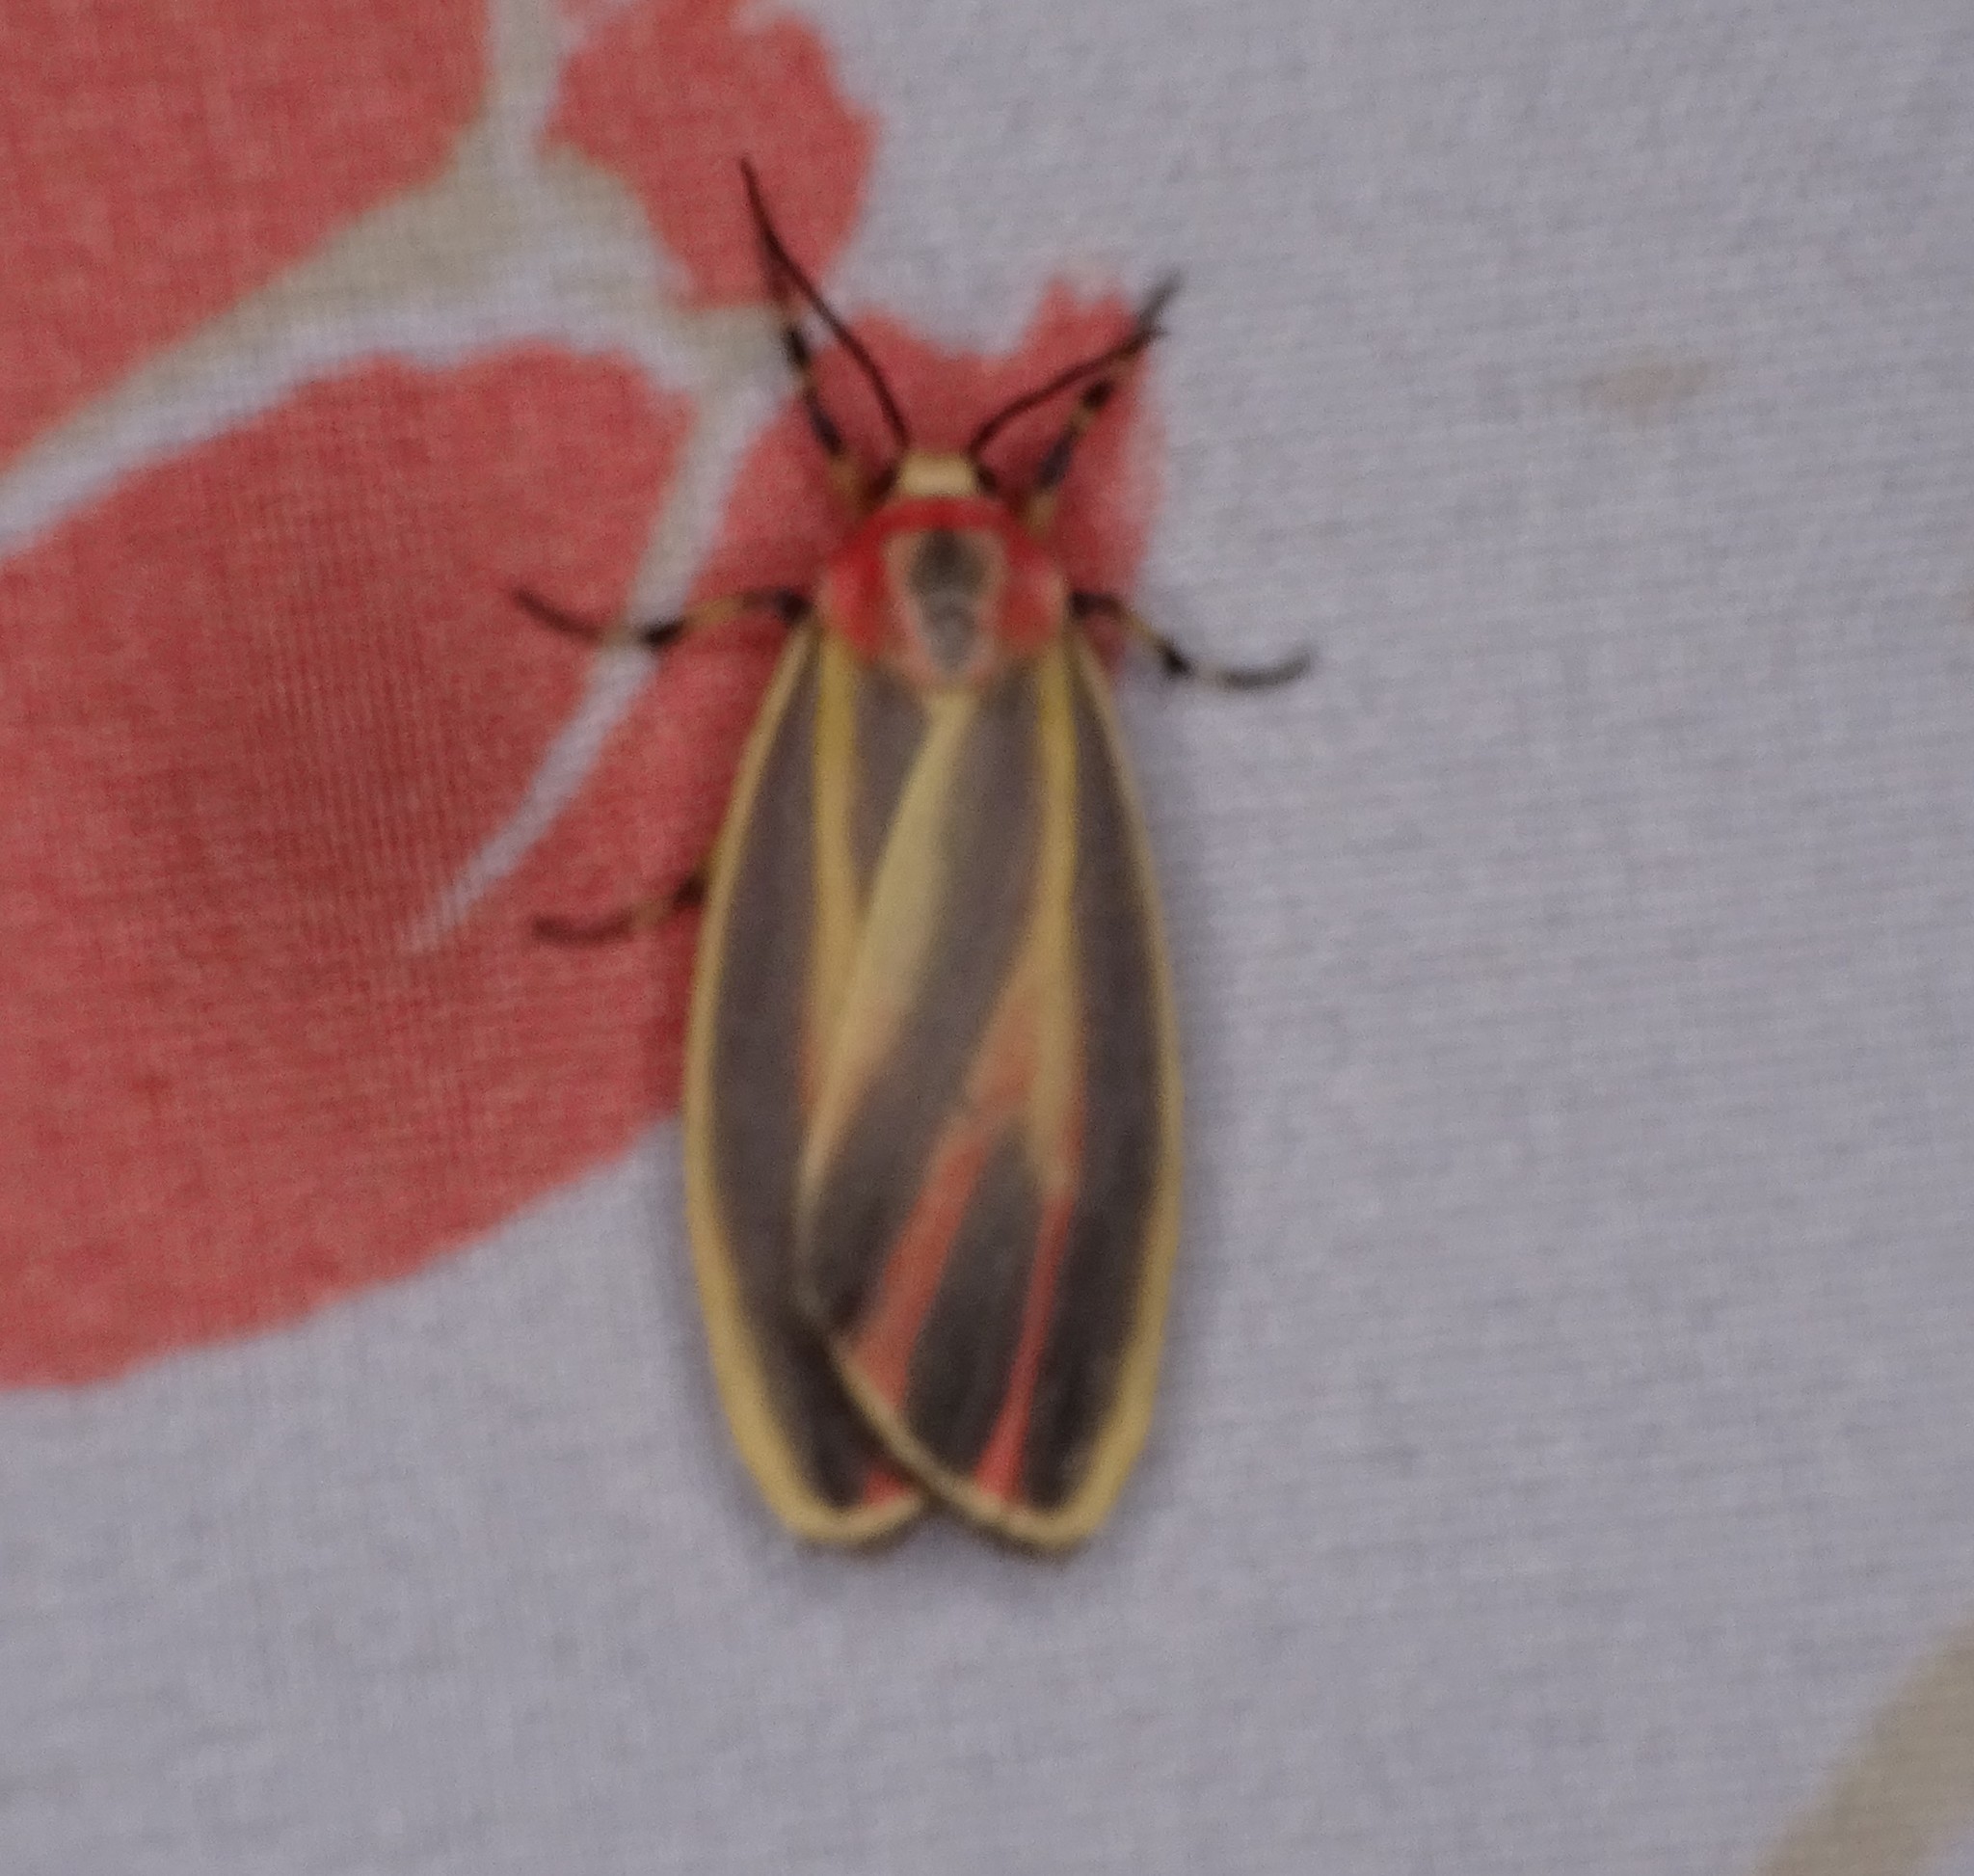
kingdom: Animalia
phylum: Arthropoda
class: Insecta
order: Lepidoptera
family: Erebidae
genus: Hypoprepia
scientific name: Hypoprepia fucosa
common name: Painted lichen moth
